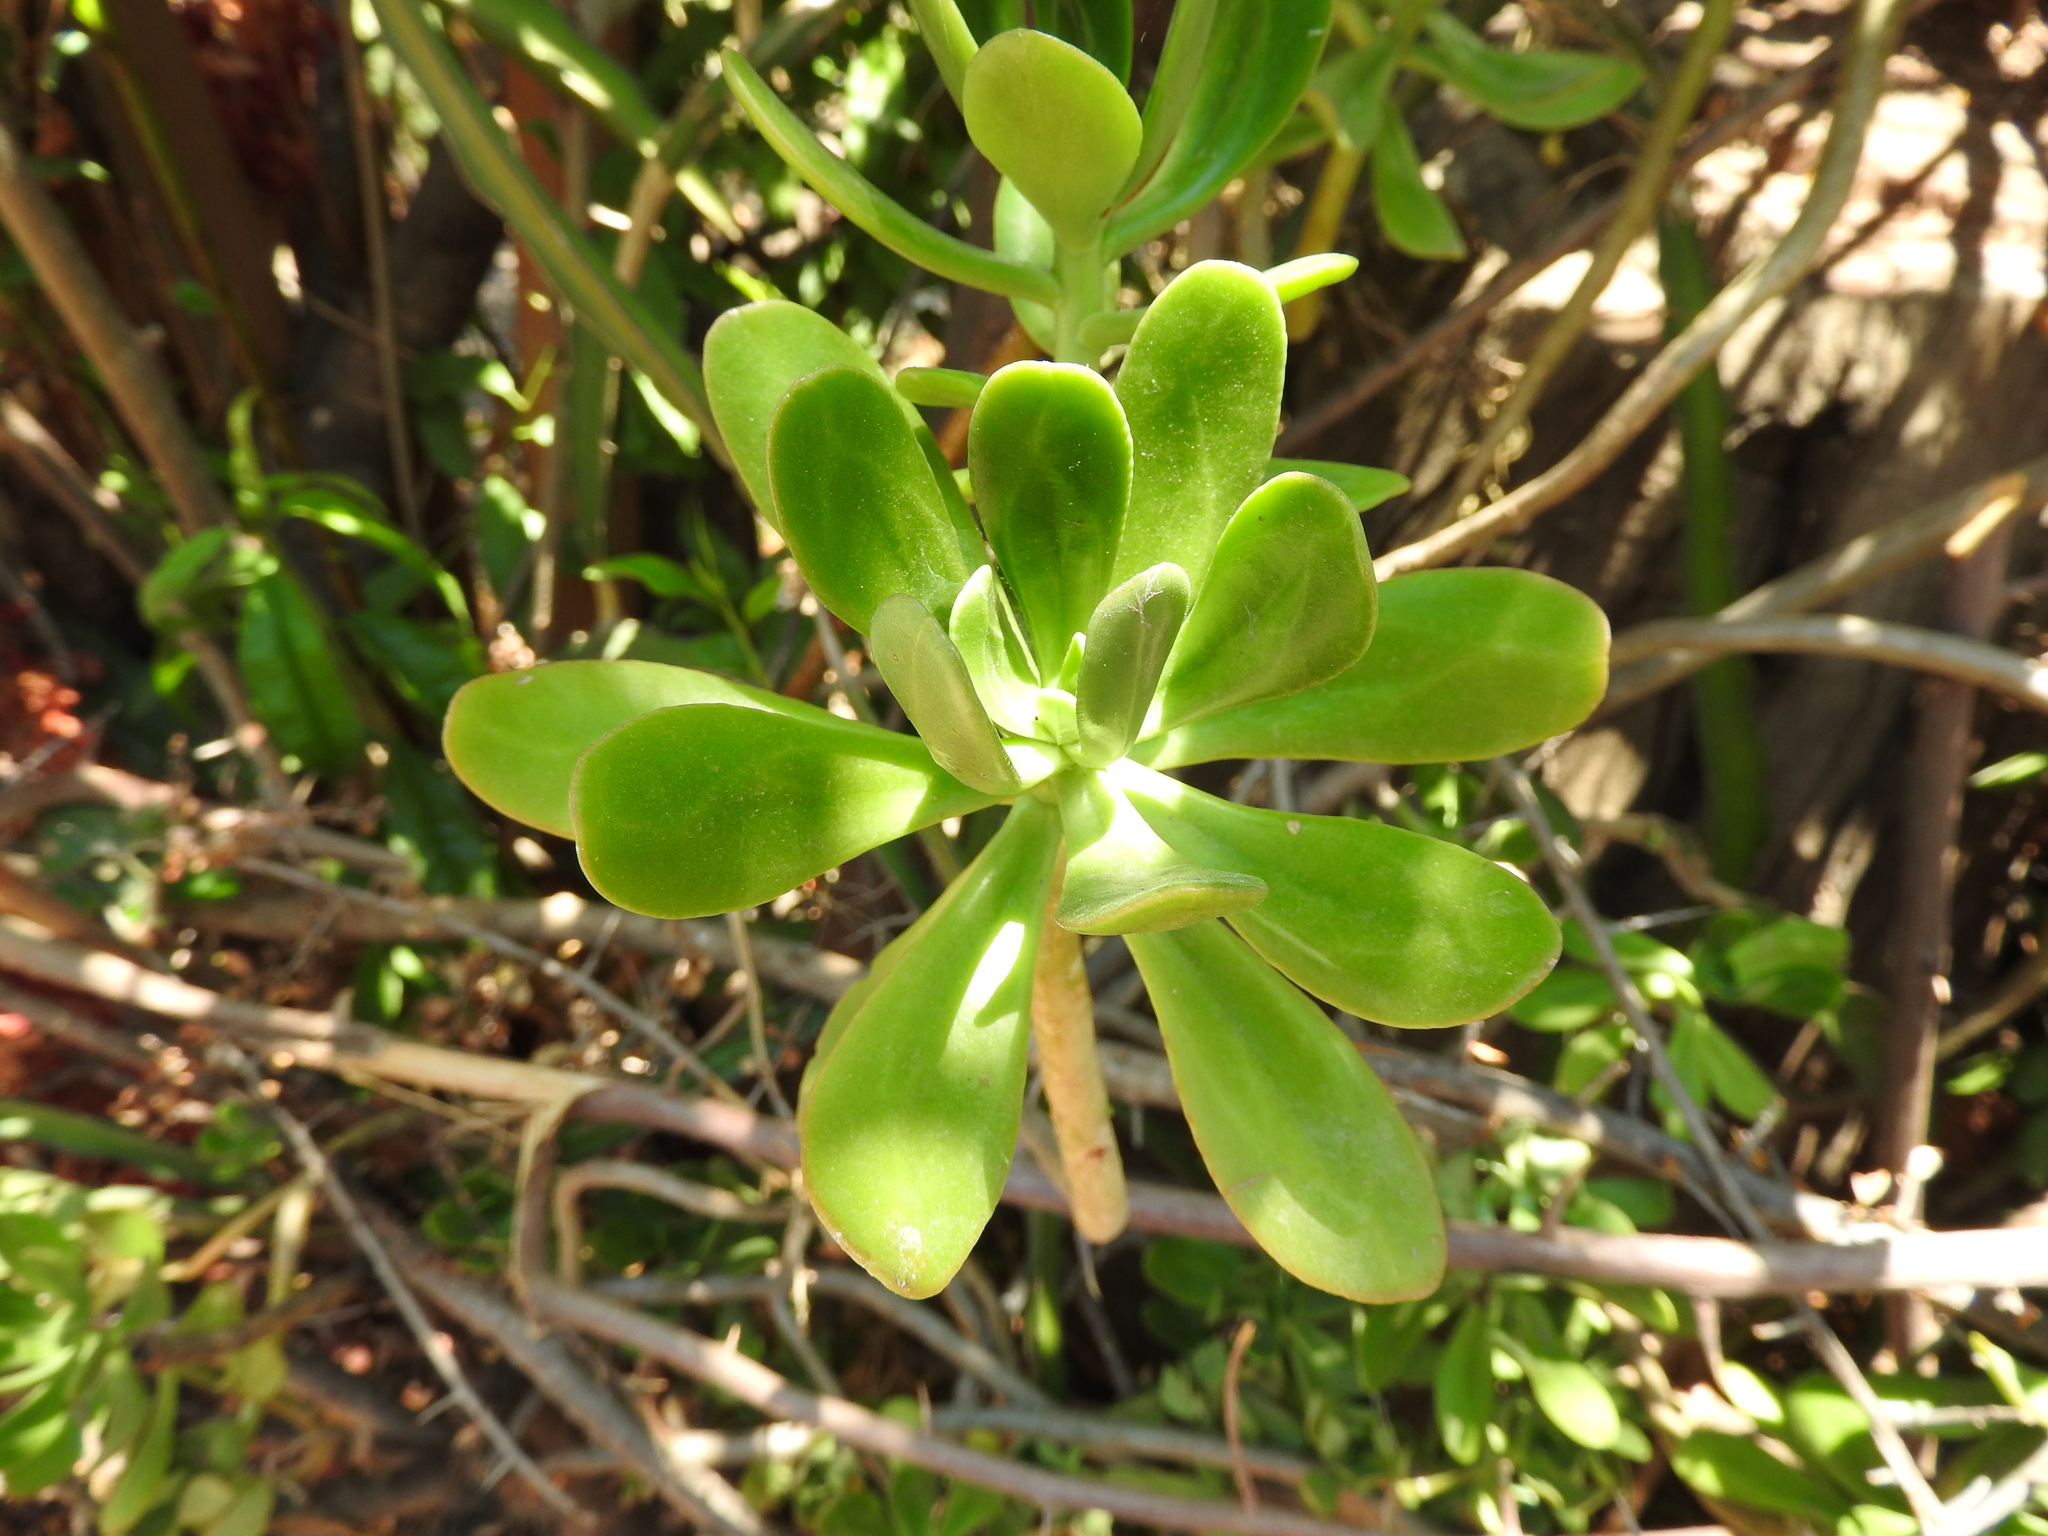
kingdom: Plantae
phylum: Tracheophyta
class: Magnoliopsida
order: Saxifragales
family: Crassulaceae
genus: Sedum
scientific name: Sedum dendroideum
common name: Tree stonecrop
